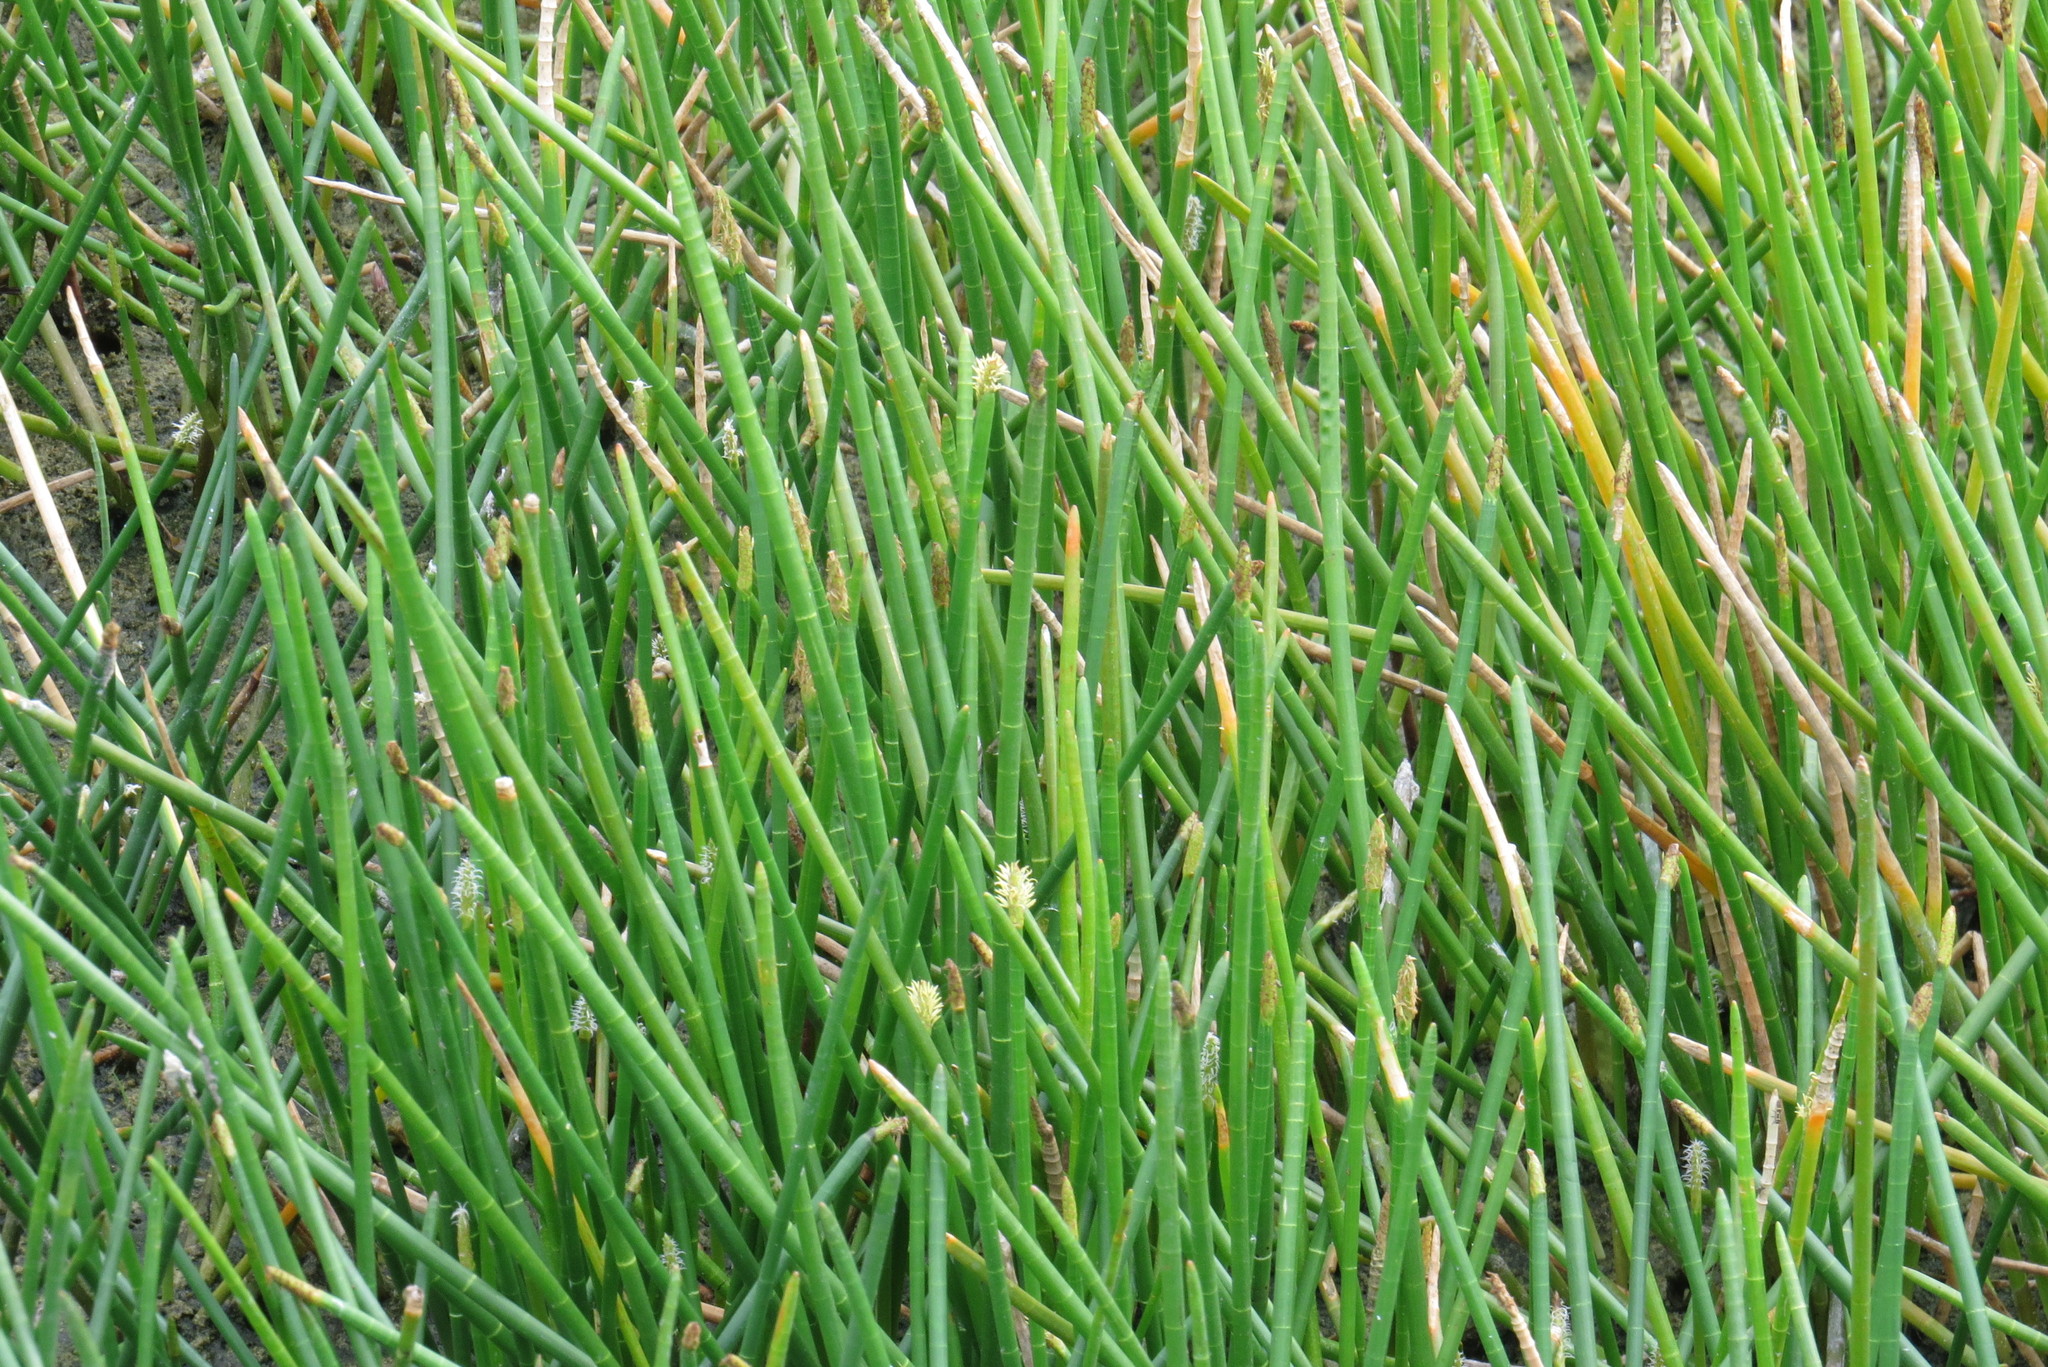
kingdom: Plantae
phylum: Tracheophyta
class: Liliopsida
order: Poales
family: Cyperaceae
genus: Eleocharis
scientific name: Eleocharis interstincta
